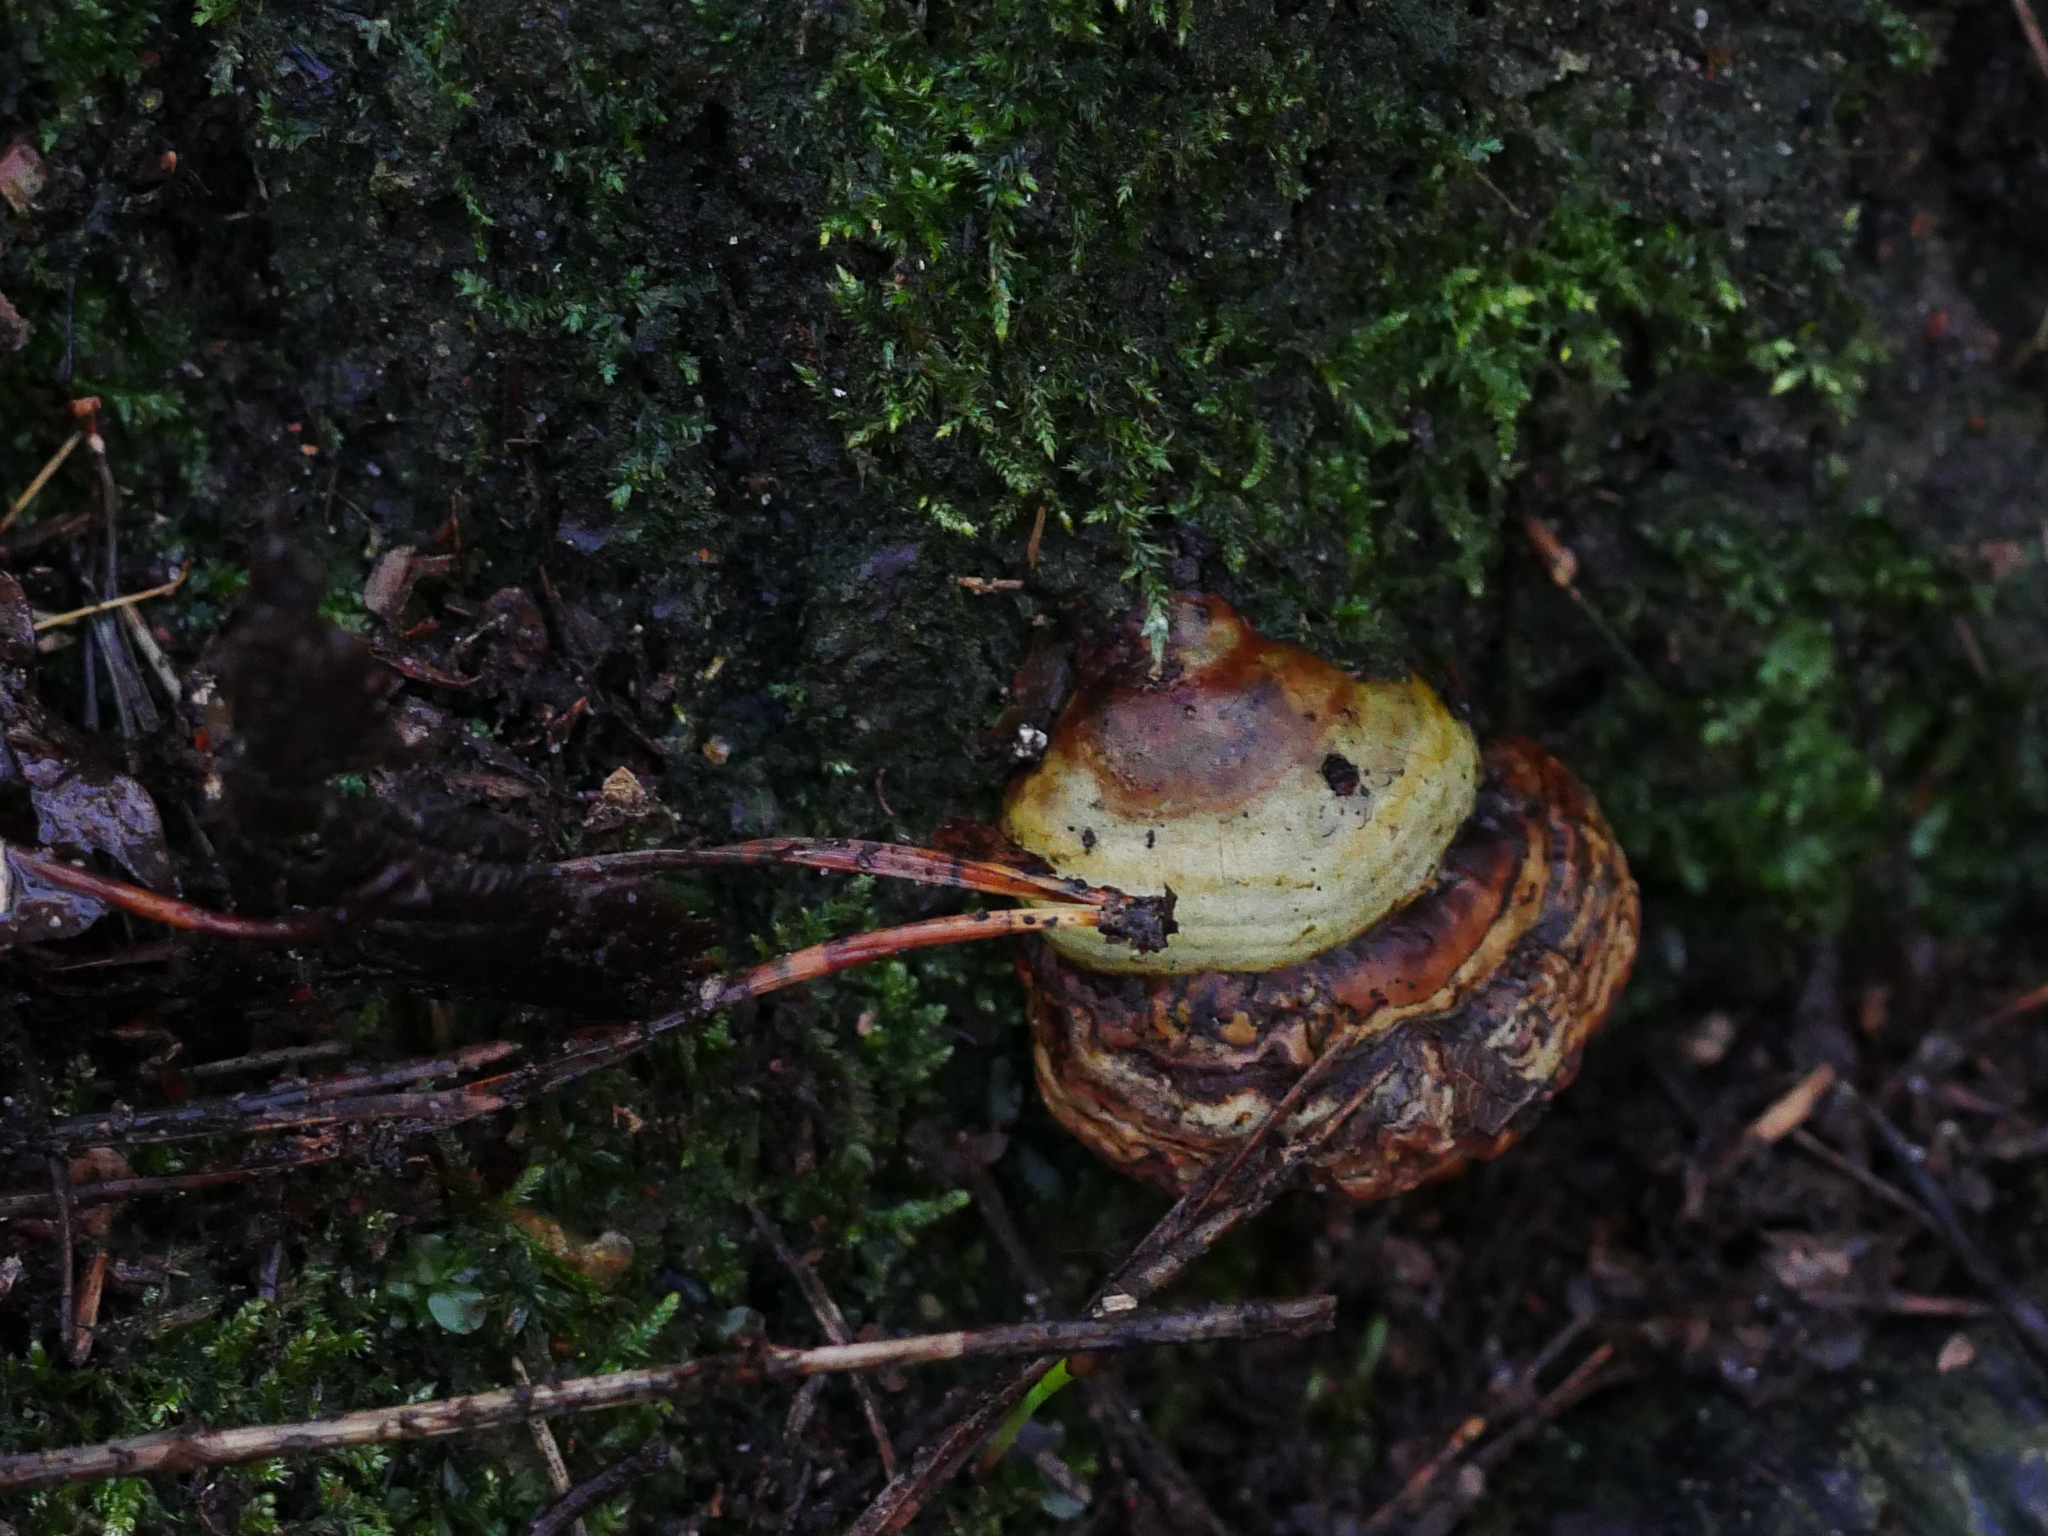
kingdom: Fungi
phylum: Basidiomycota
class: Agaricomycetes
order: Polyporales
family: Polyporaceae
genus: Fomes
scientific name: Fomes fomentarius
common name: Hoof fungus
